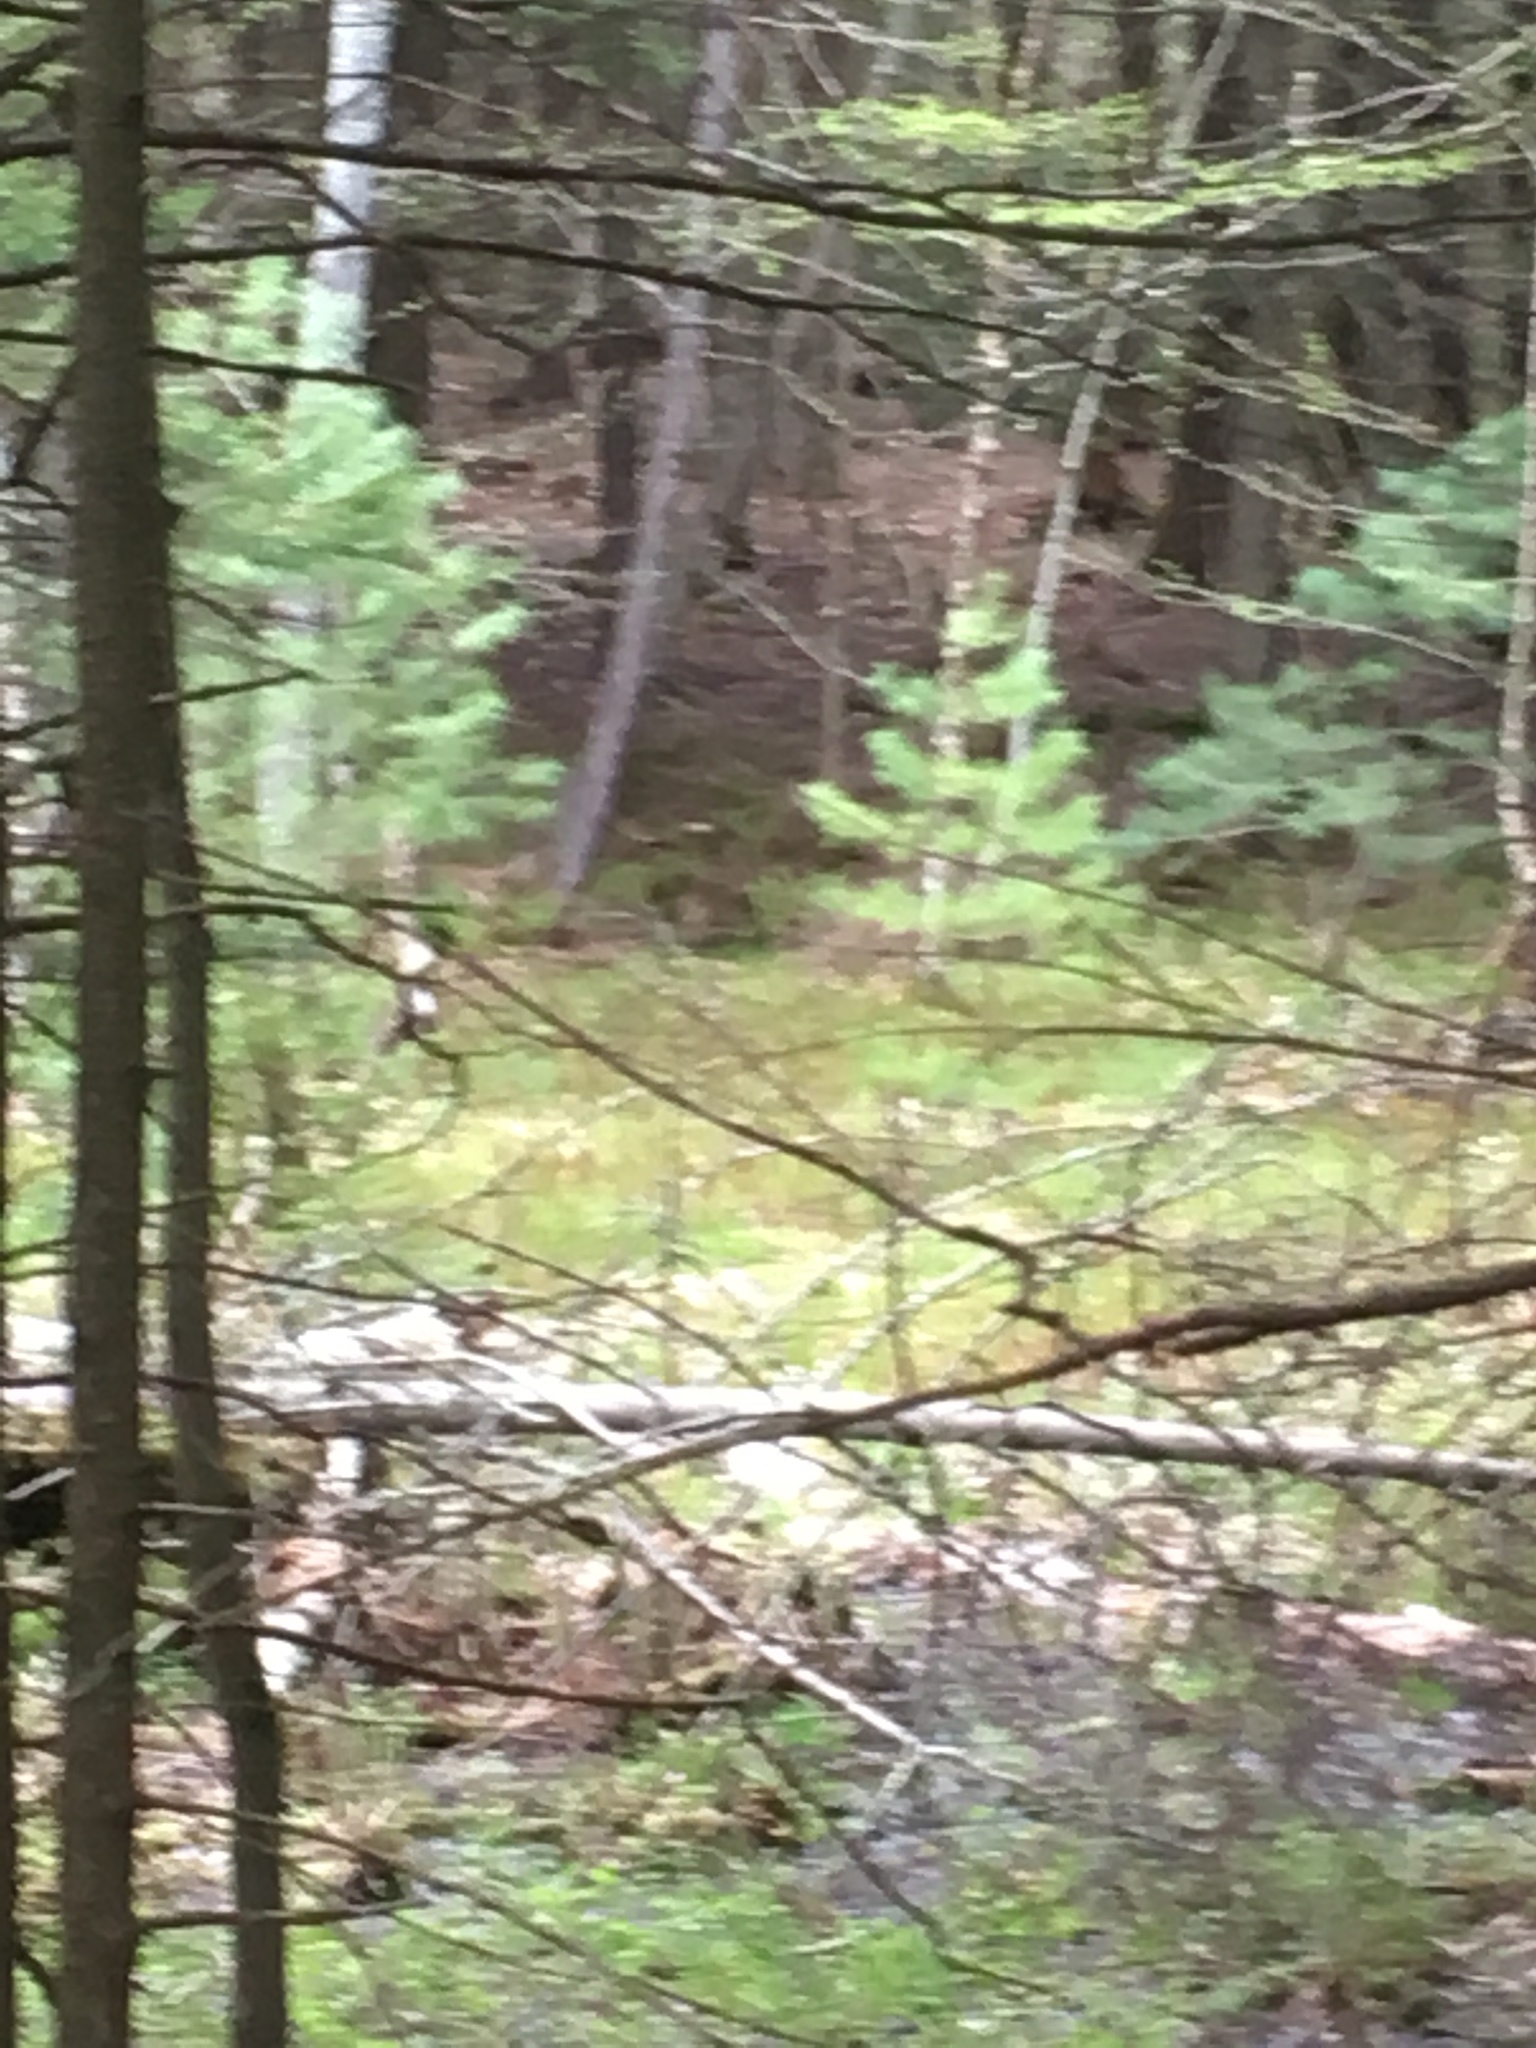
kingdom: Plantae
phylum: Tracheophyta
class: Pinopsida
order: Pinales
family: Pinaceae
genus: Pinus
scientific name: Pinus strobus
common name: Weymouth pine
